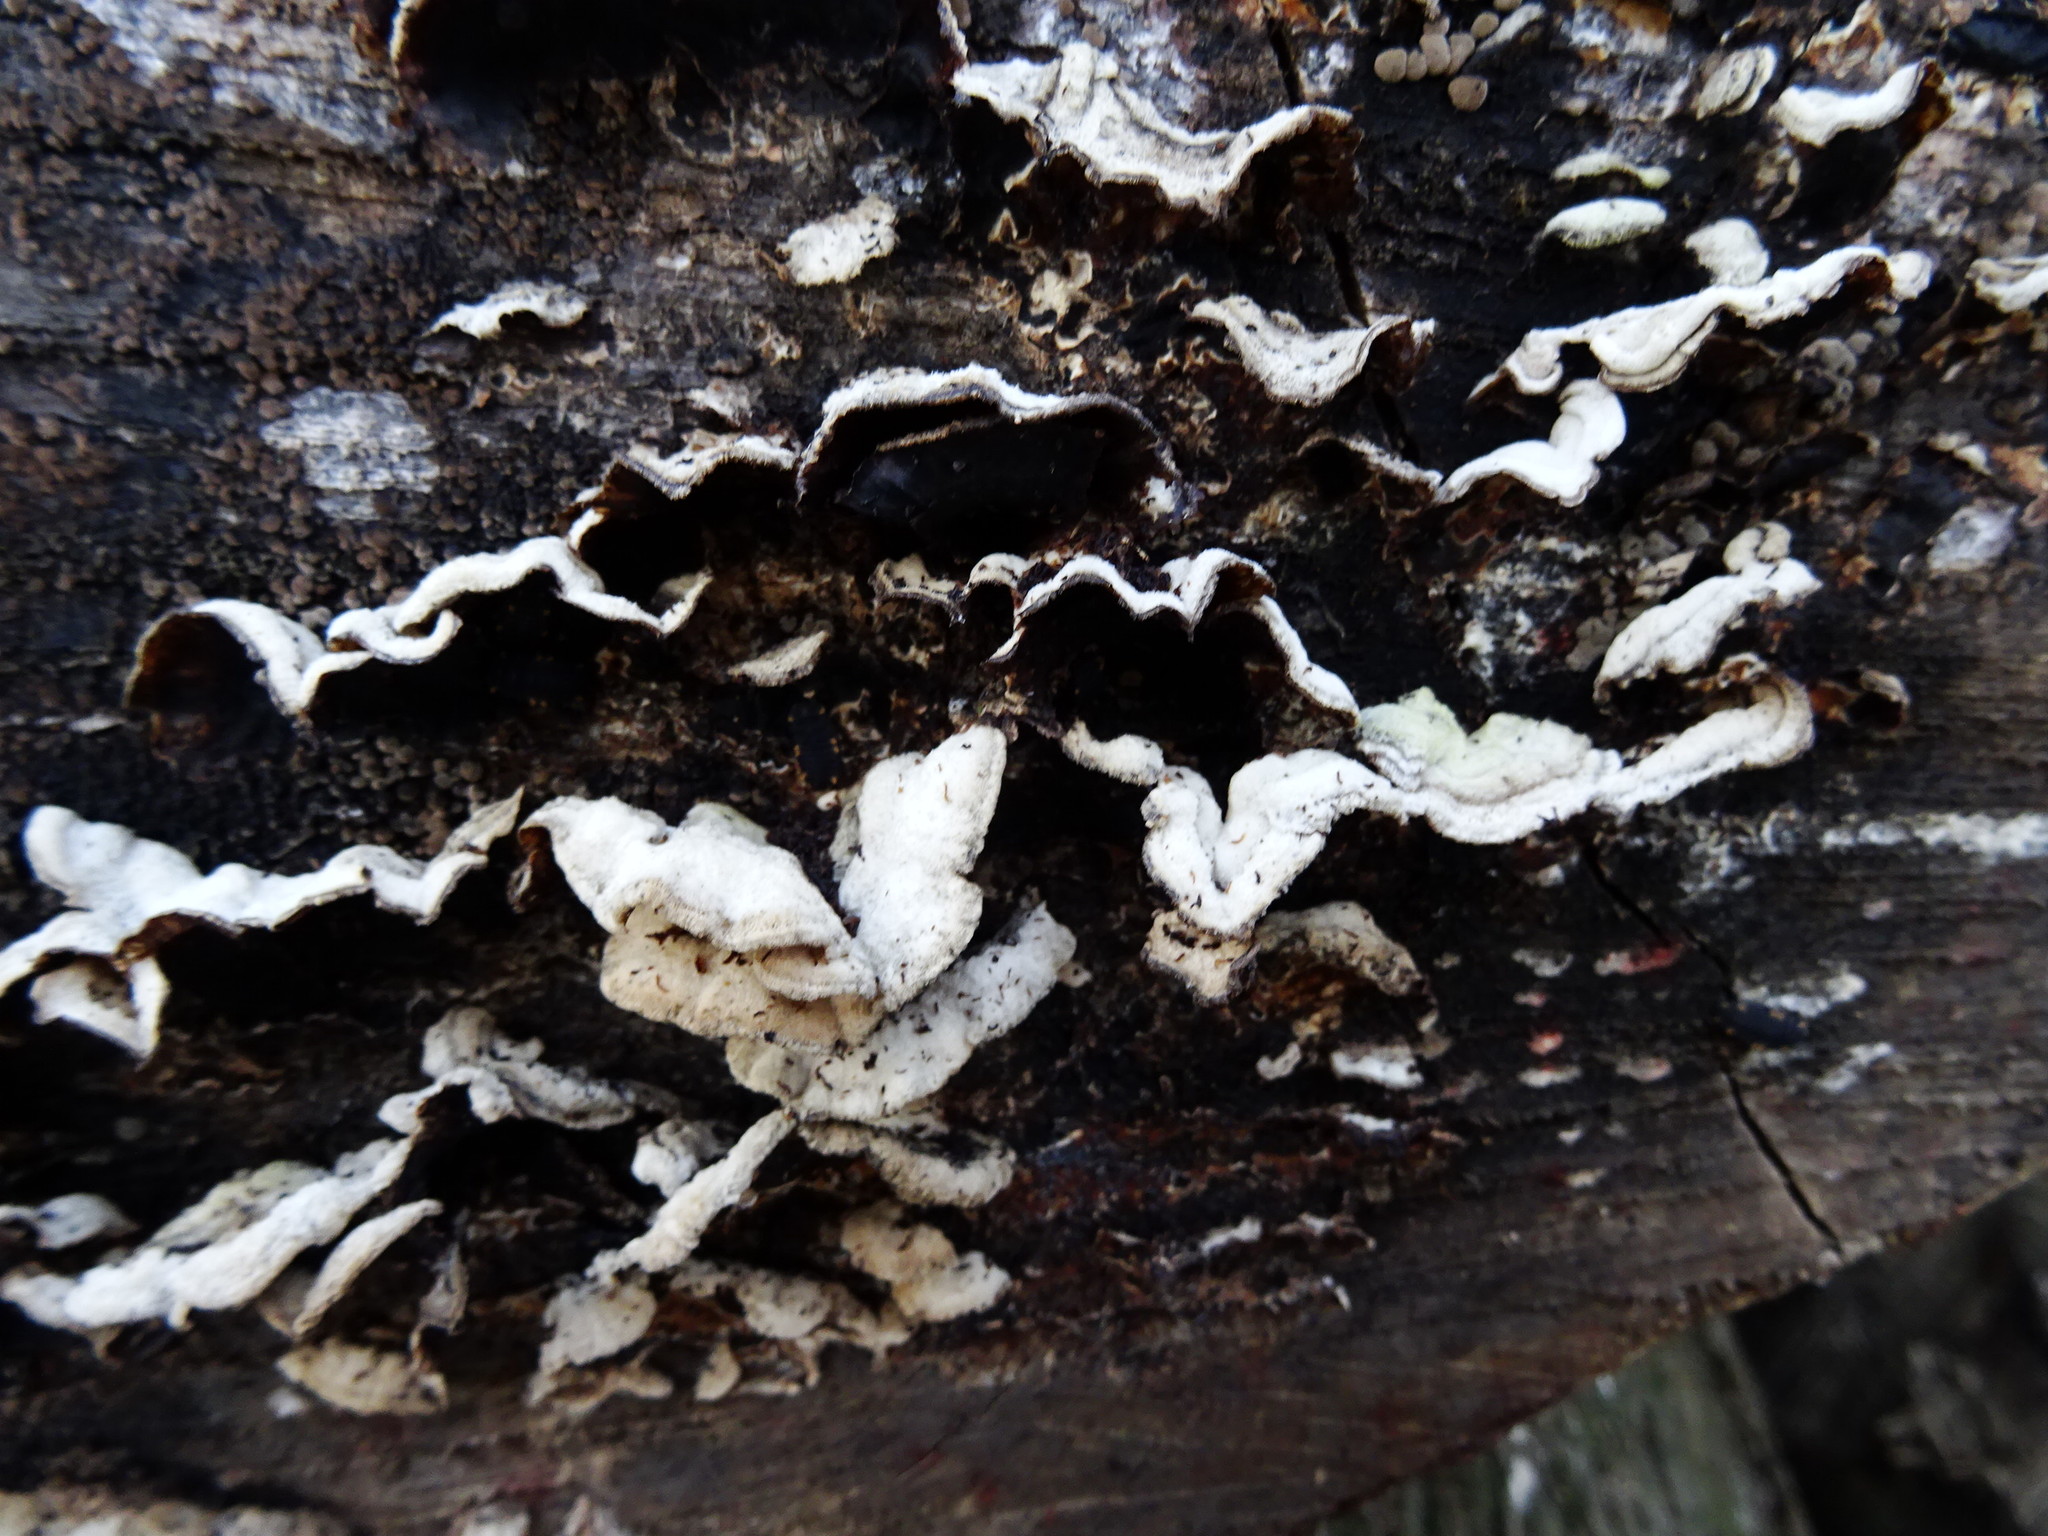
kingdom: Fungi
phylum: Basidiomycota
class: Agaricomycetes
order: Auriculariales
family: Auriculariaceae
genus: Auricularia
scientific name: Auricularia mesenterica
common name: Tripe fungus
